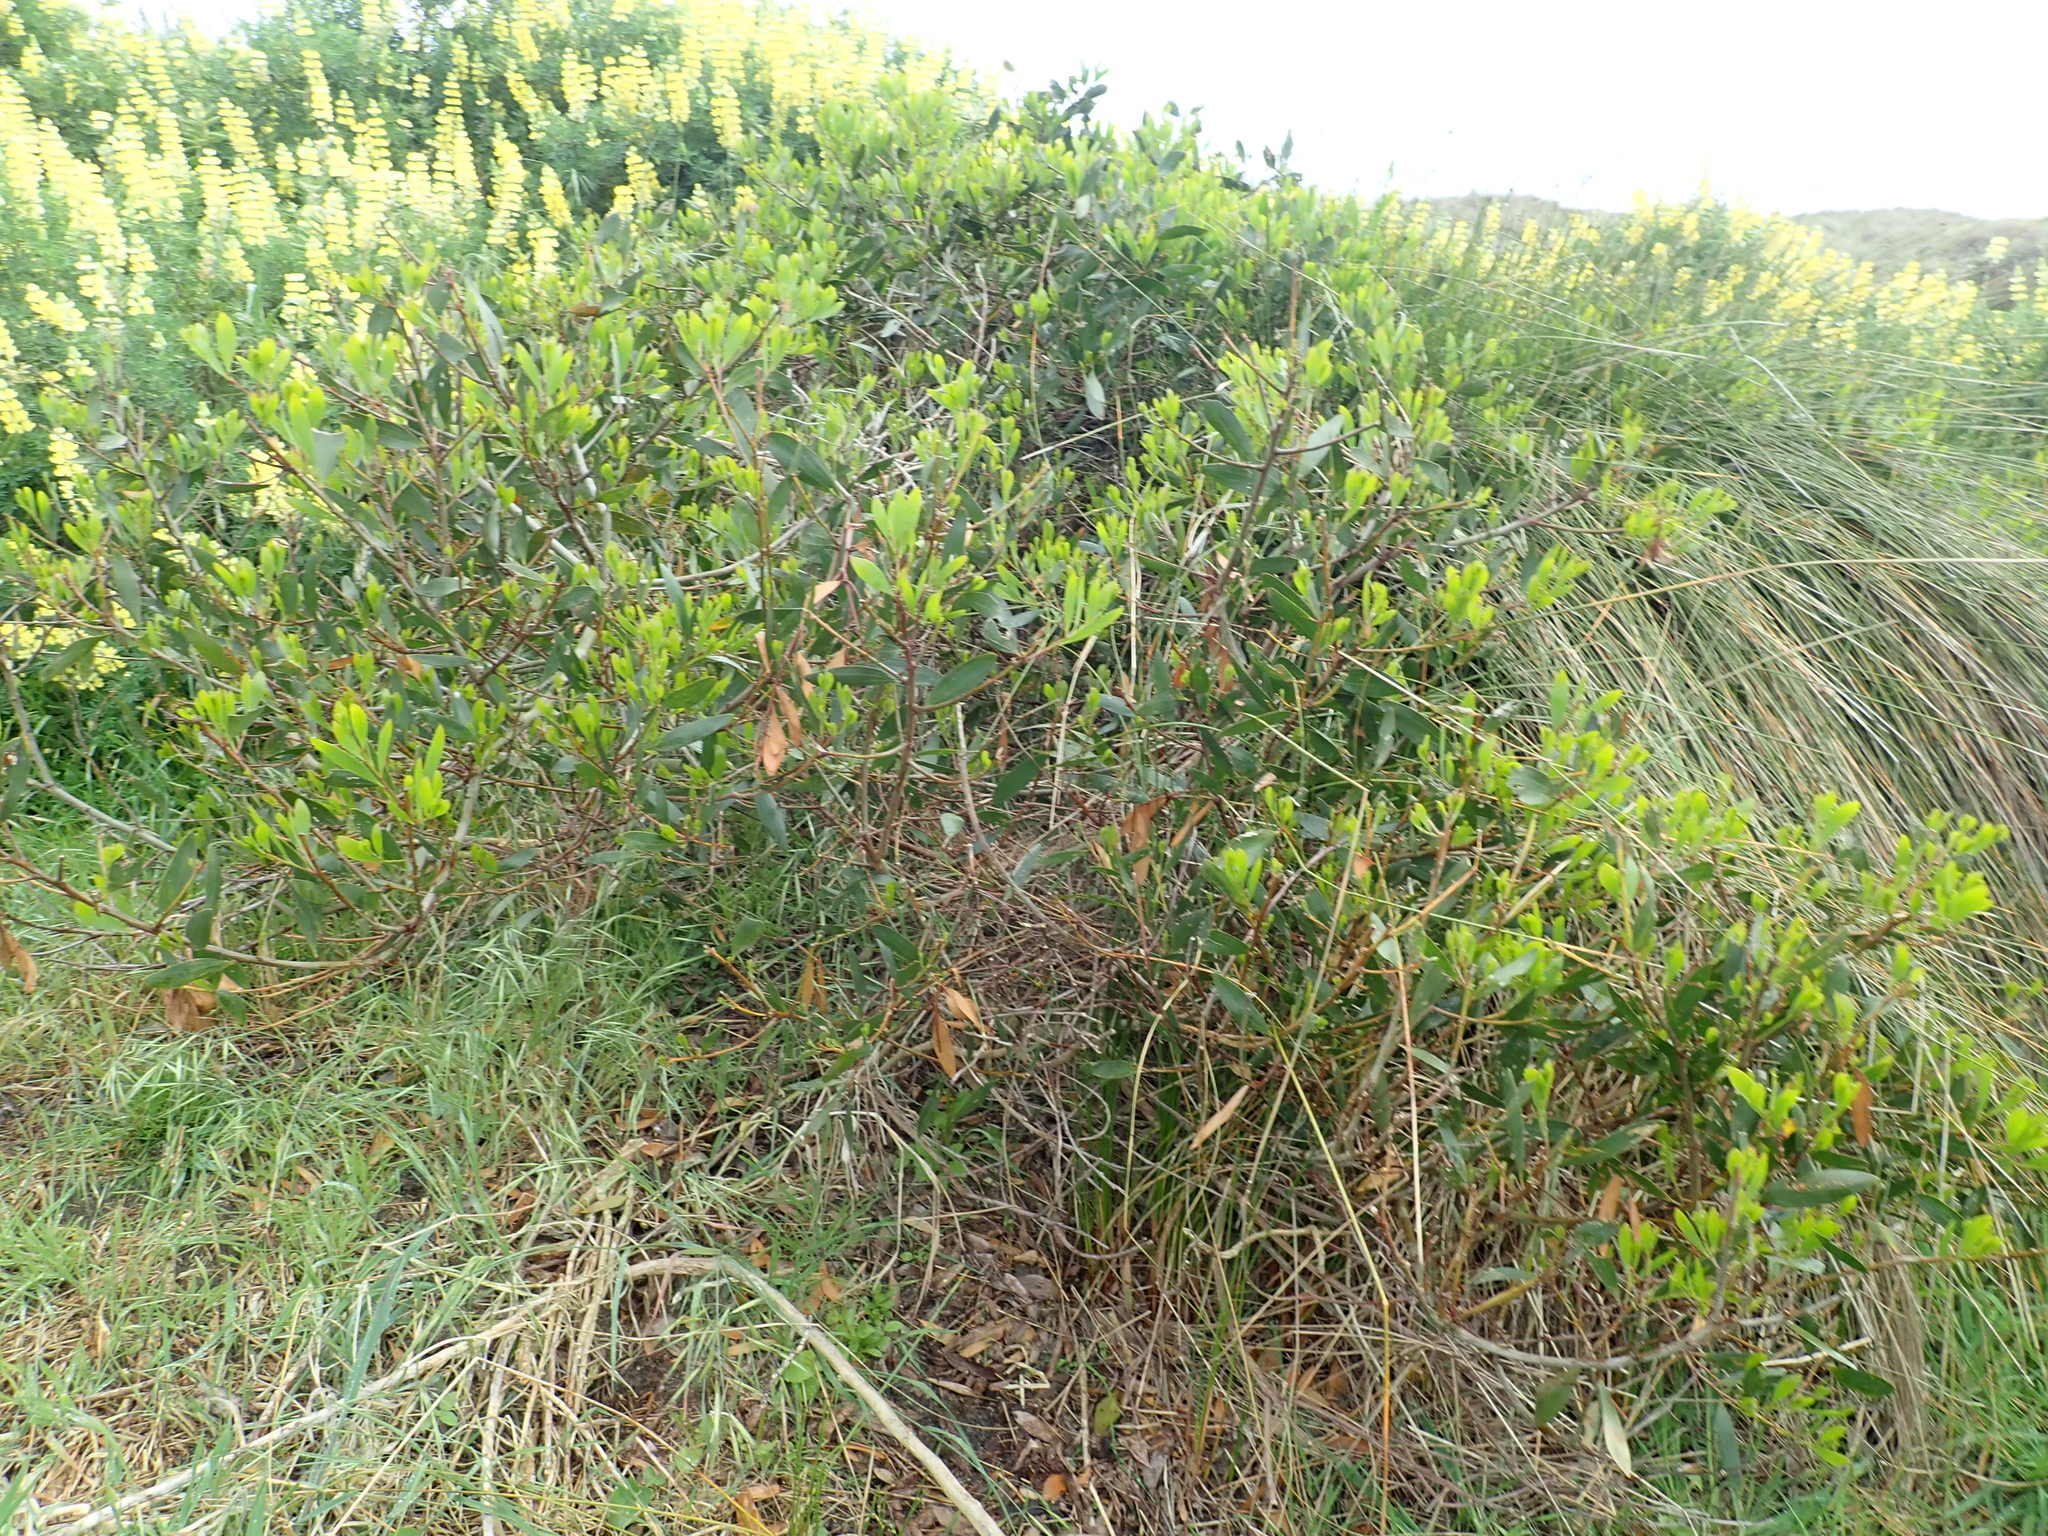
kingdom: Plantae
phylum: Tracheophyta
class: Magnoliopsida
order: Fabales
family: Fabaceae
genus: Acacia
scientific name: Acacia longifolia
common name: Sydney golden wattle
